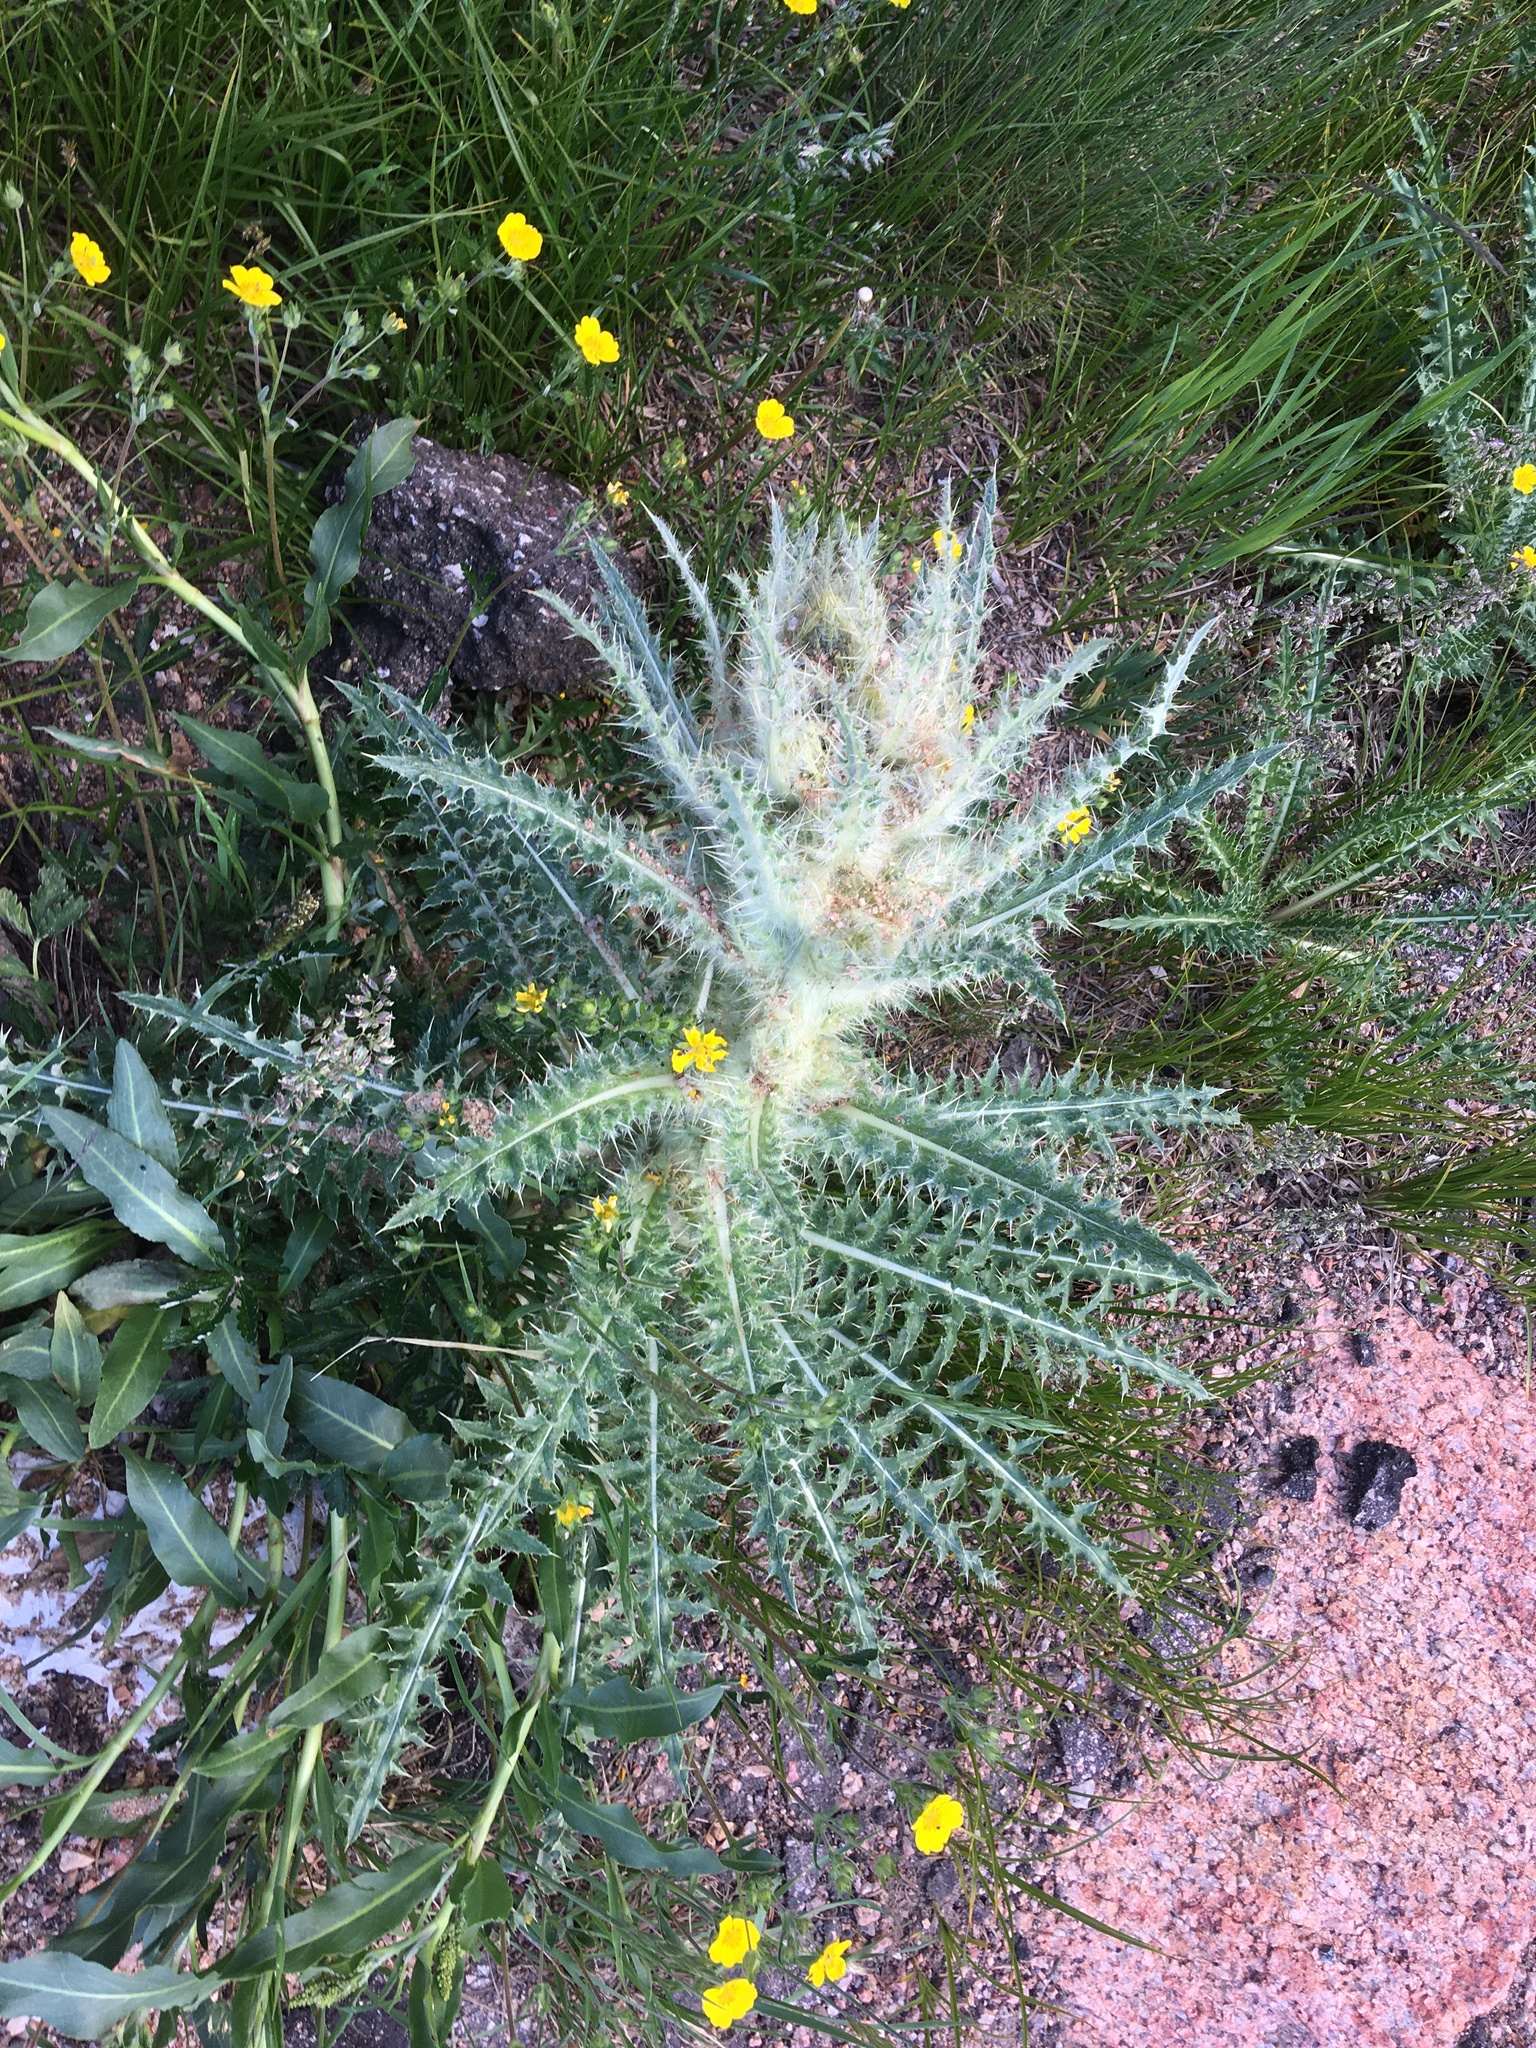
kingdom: Plantae
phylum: Tracheophyta
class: Magnoliopsida
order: Asterales
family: Asteraceae
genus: Cirsium
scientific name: Cirsium scopulorum
